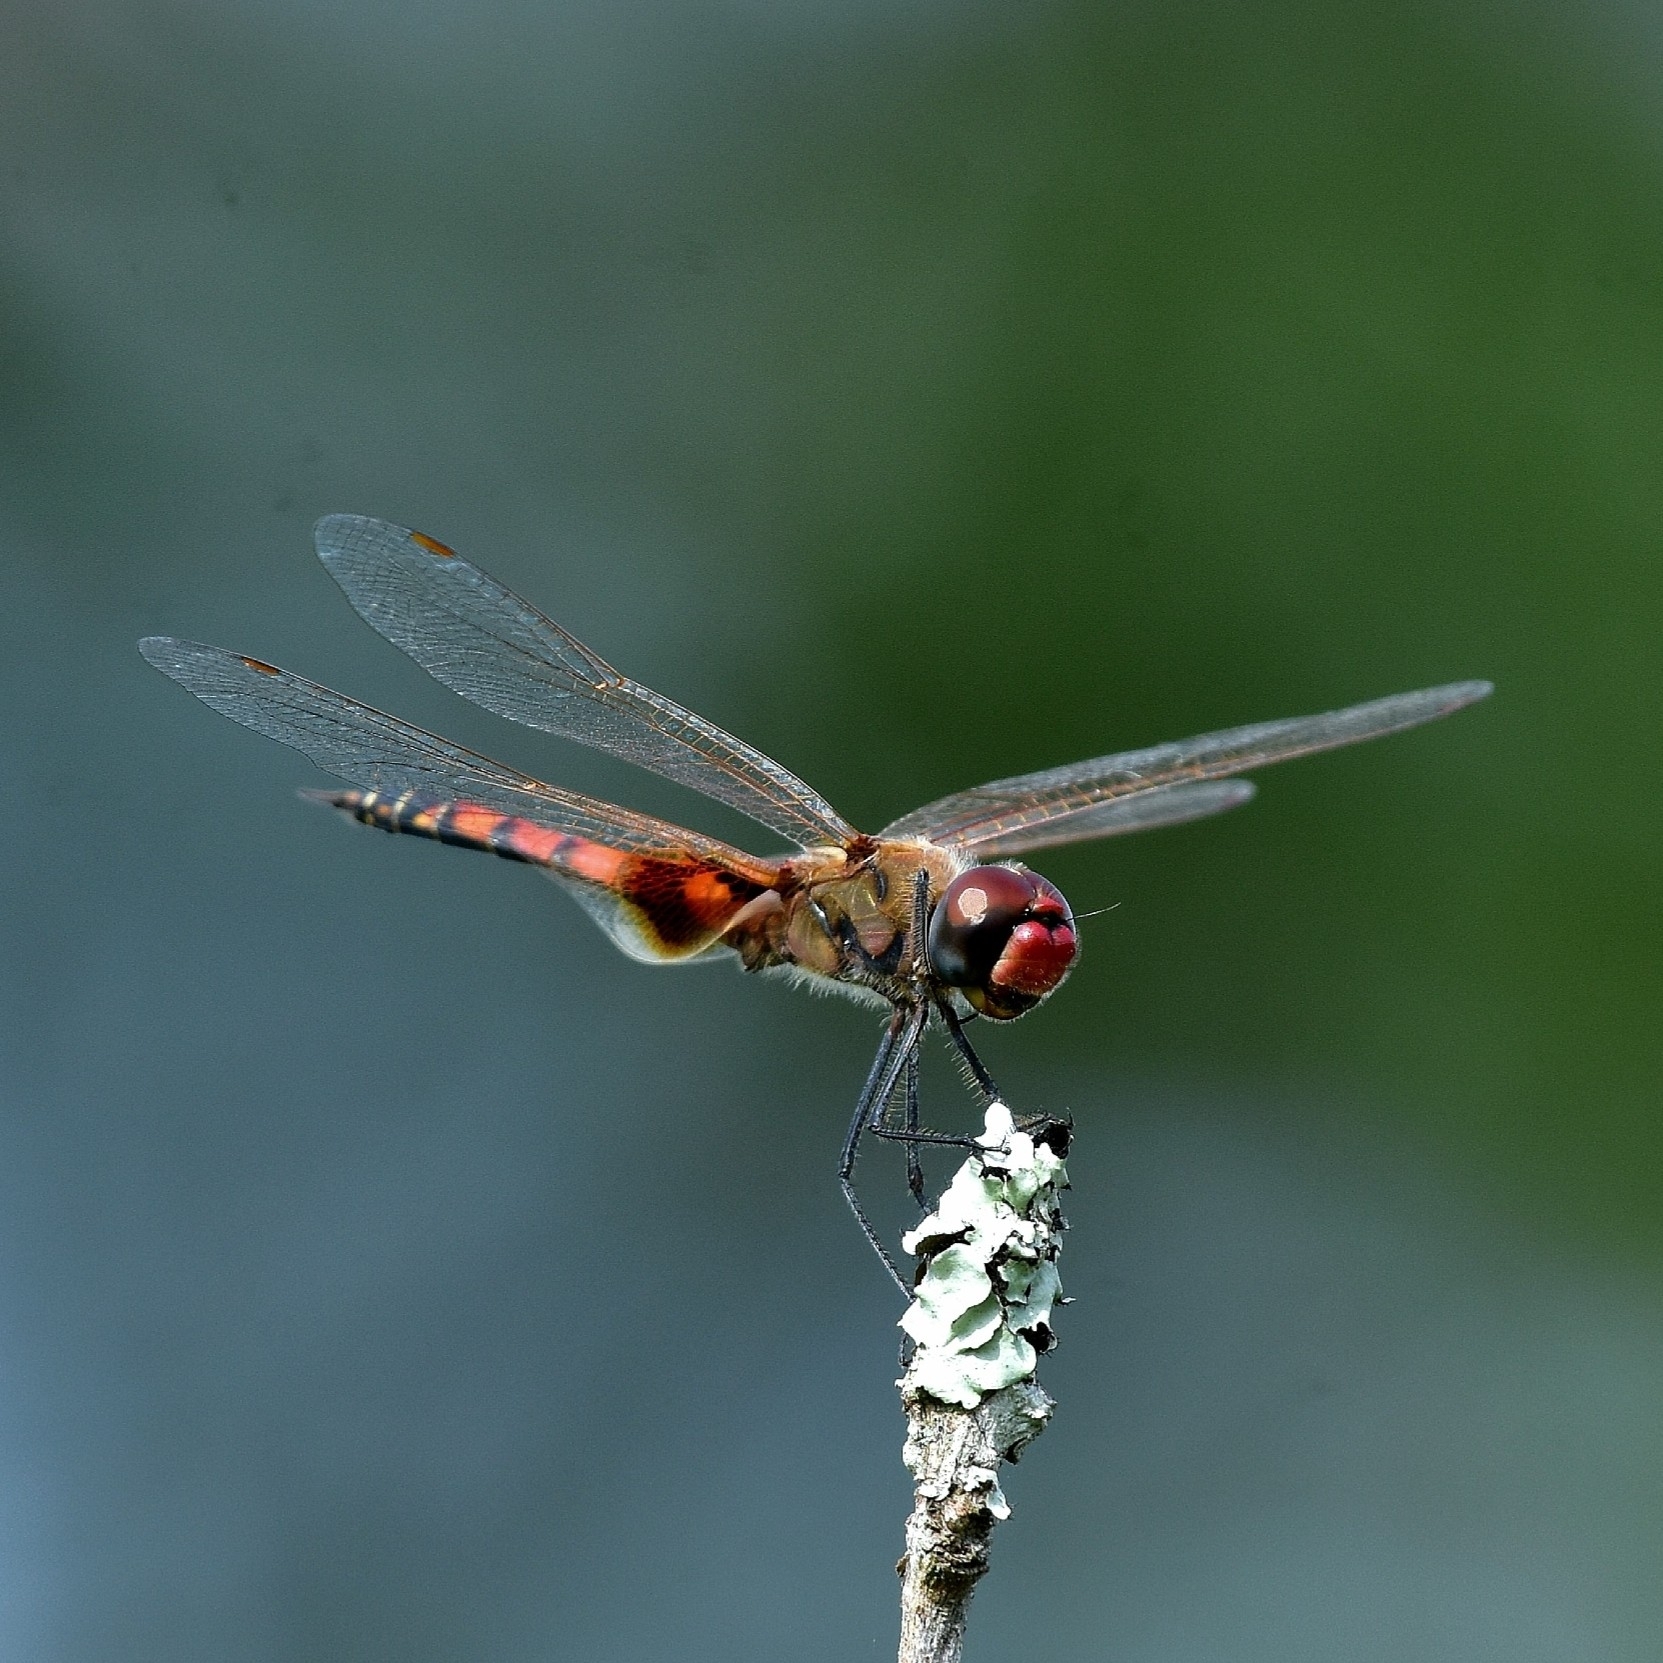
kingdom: Animalia
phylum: Arthropoda
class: Insecta
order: Odonata
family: Libellulidae
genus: Tramea
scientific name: Tramea basilaris
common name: Keyhole glider
